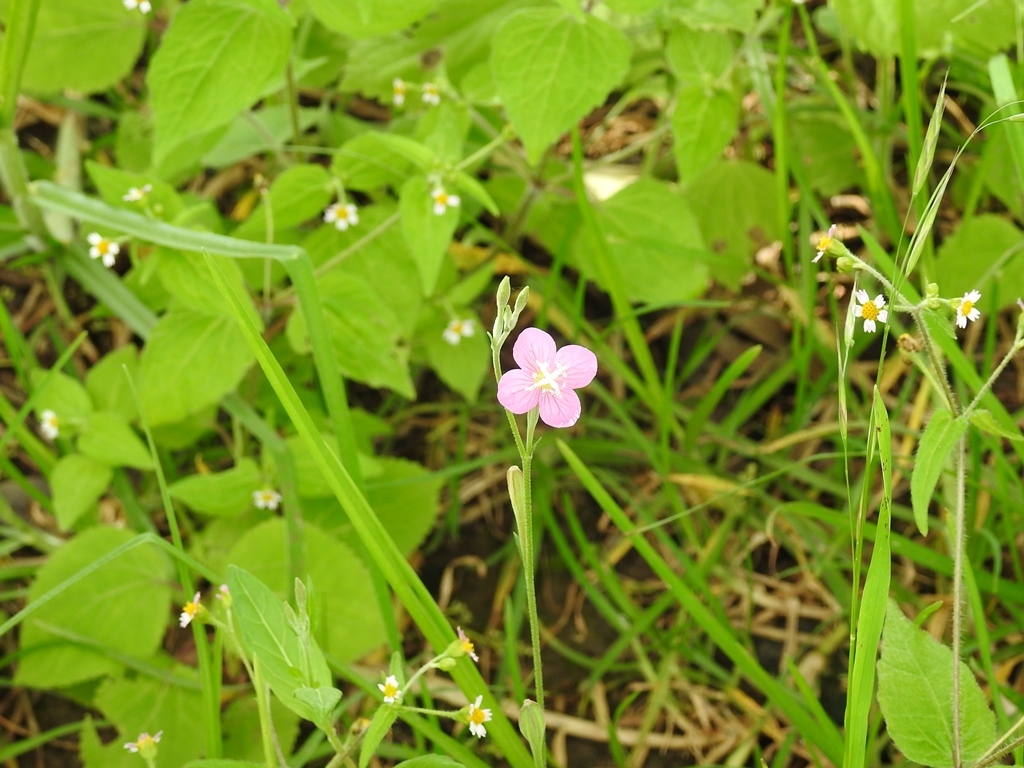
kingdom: Plantae
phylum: Tracheophyta
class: Magnoliopsida
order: Myrtales
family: Onagraceae
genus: Oenothera
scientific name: Oenothera rosea
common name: Rosy evening-primrose
